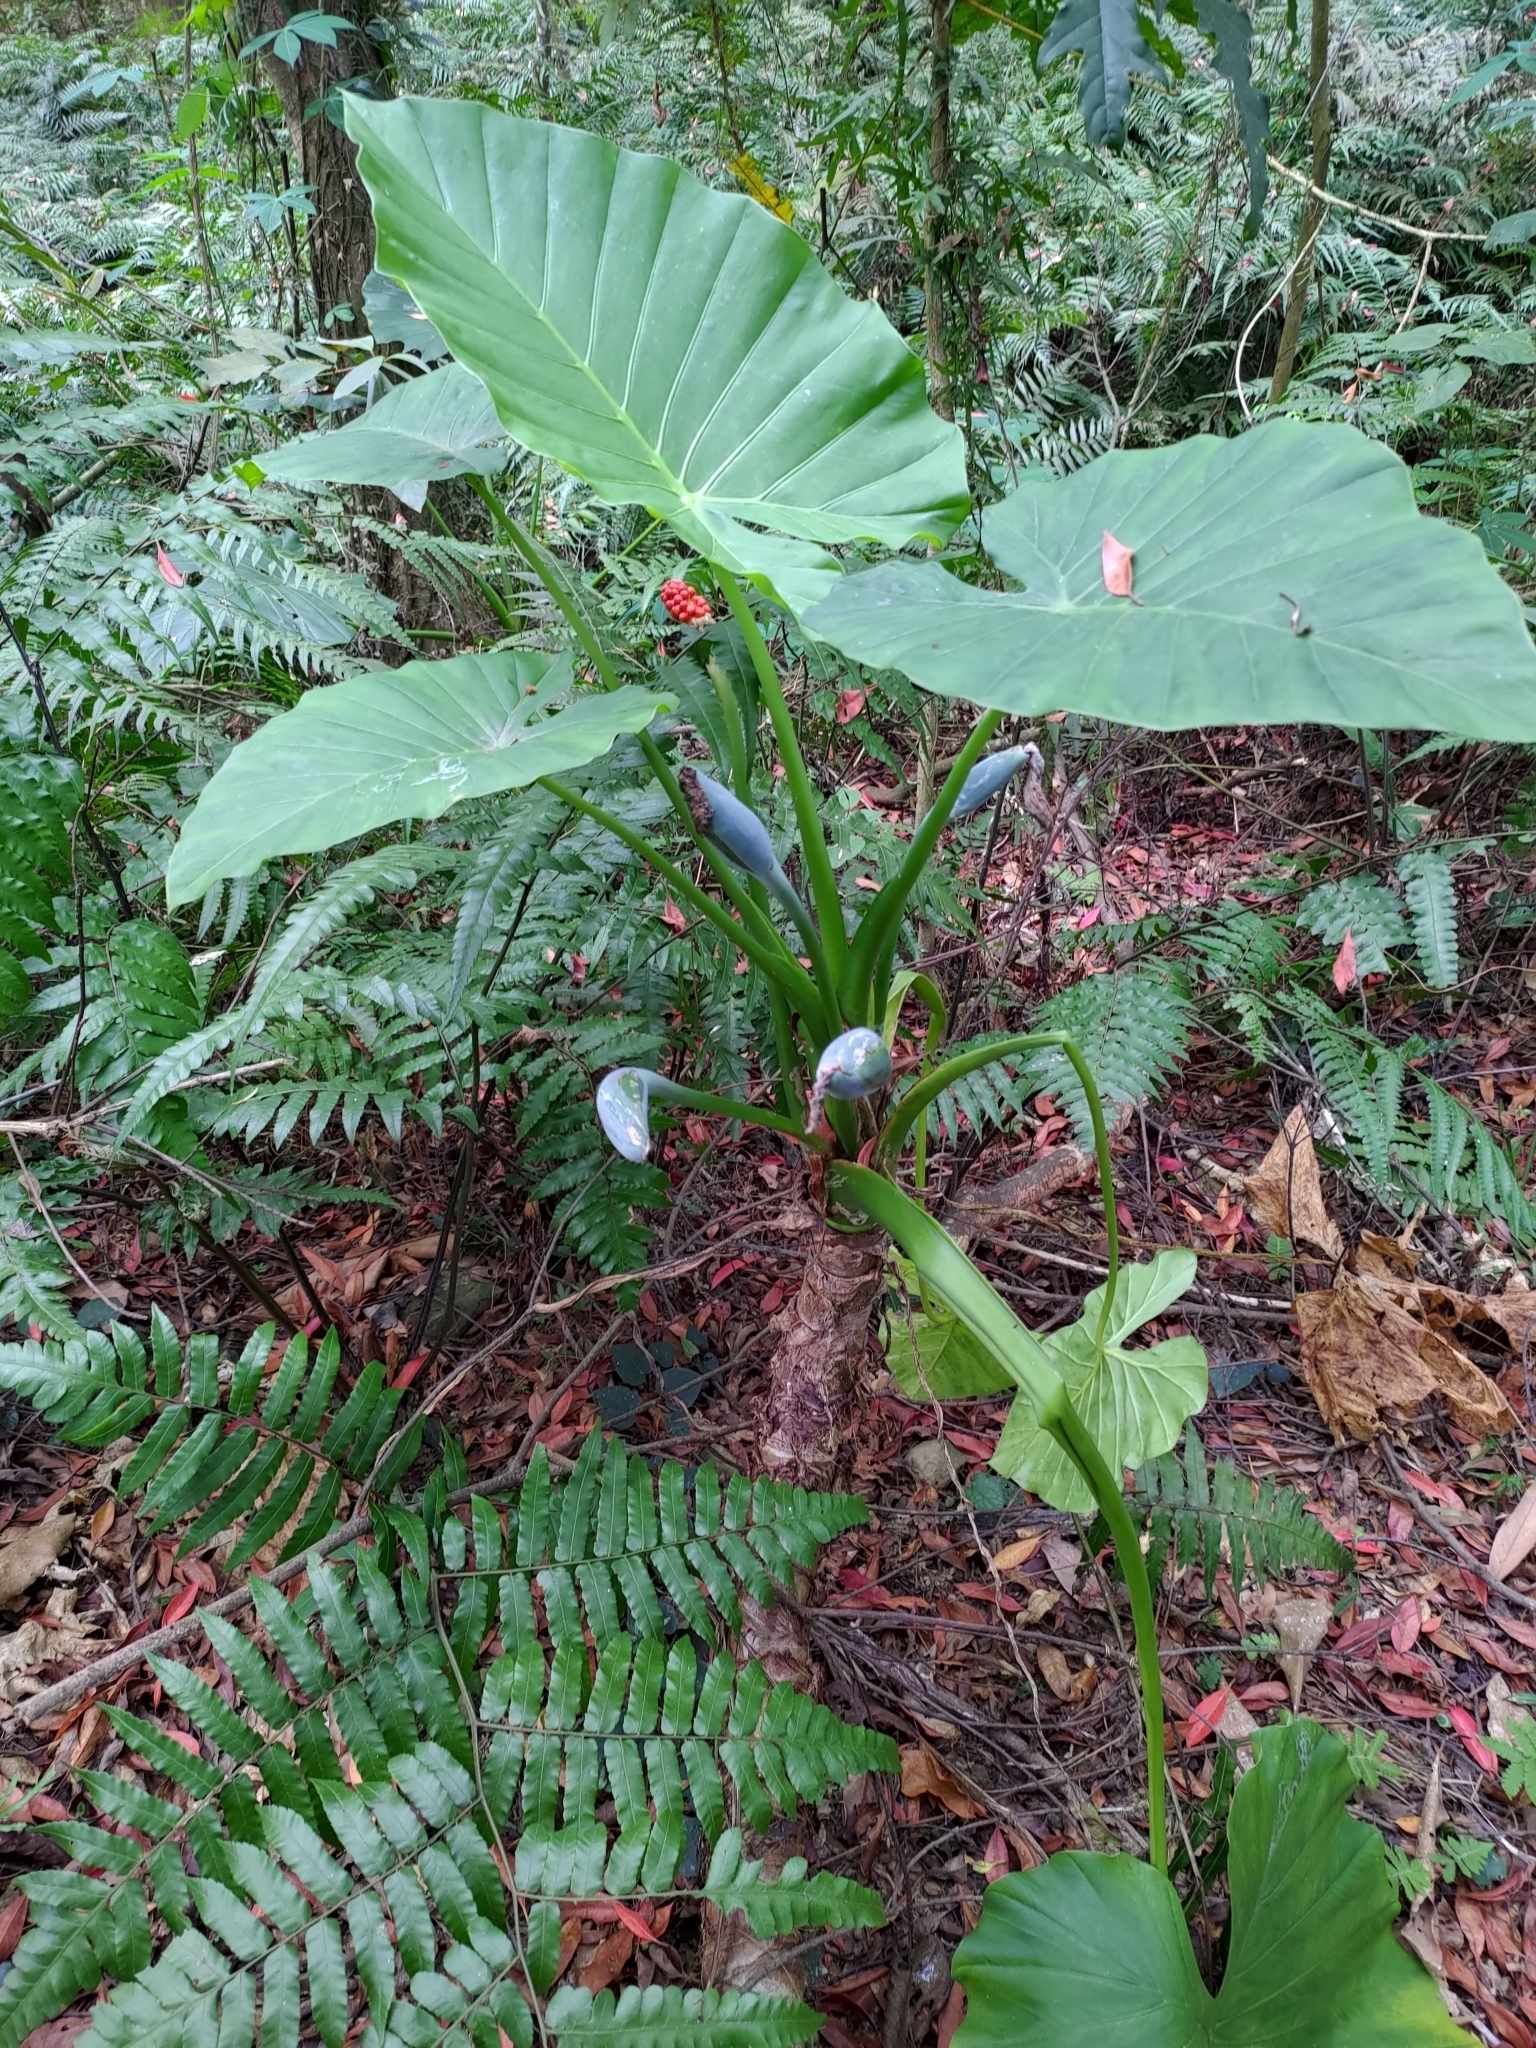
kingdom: Plantae
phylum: Tracheophyta
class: Liliopsida
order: Alismatales
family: Araceae
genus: Alocasia
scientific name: Alocasia odora
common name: Asian taro
